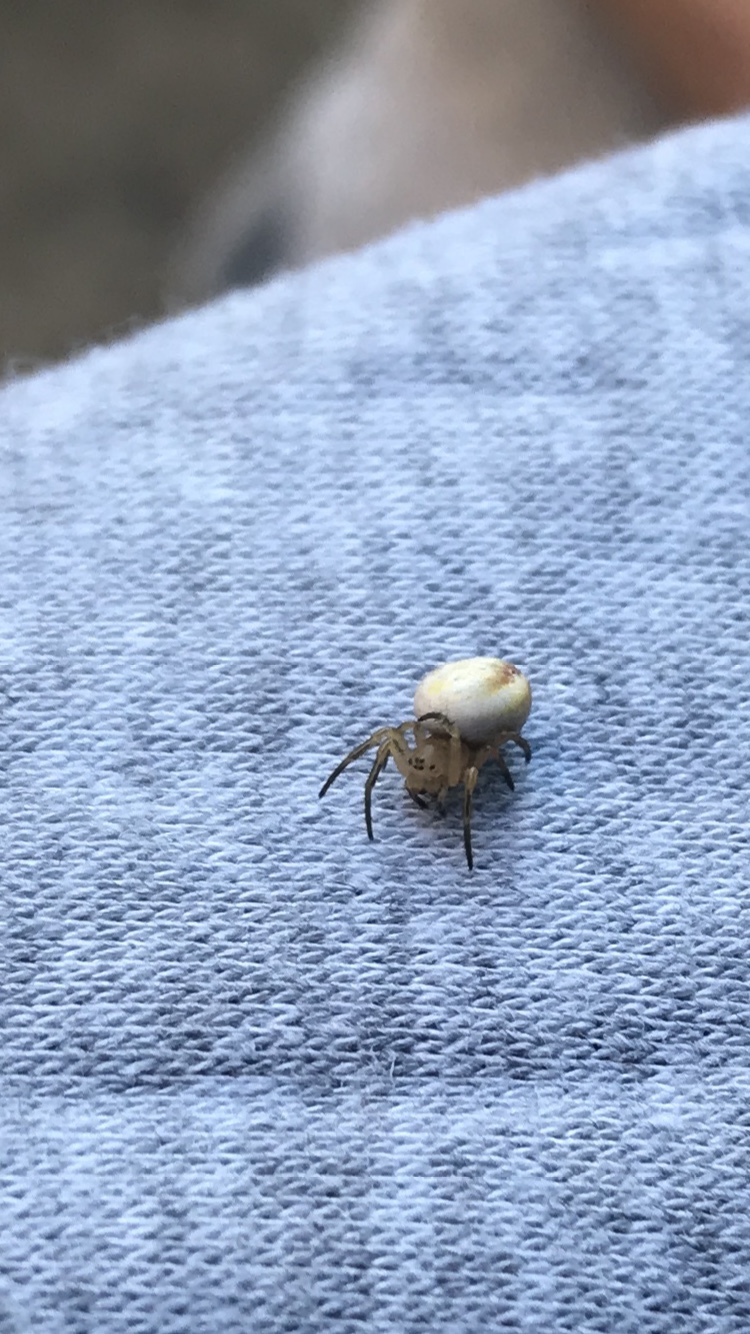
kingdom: Animalia
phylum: Arthropoda
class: Arachnida
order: Araneae
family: Araneidae
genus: Araniella
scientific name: Araniella displicata
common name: Sixspotted orb weaver
